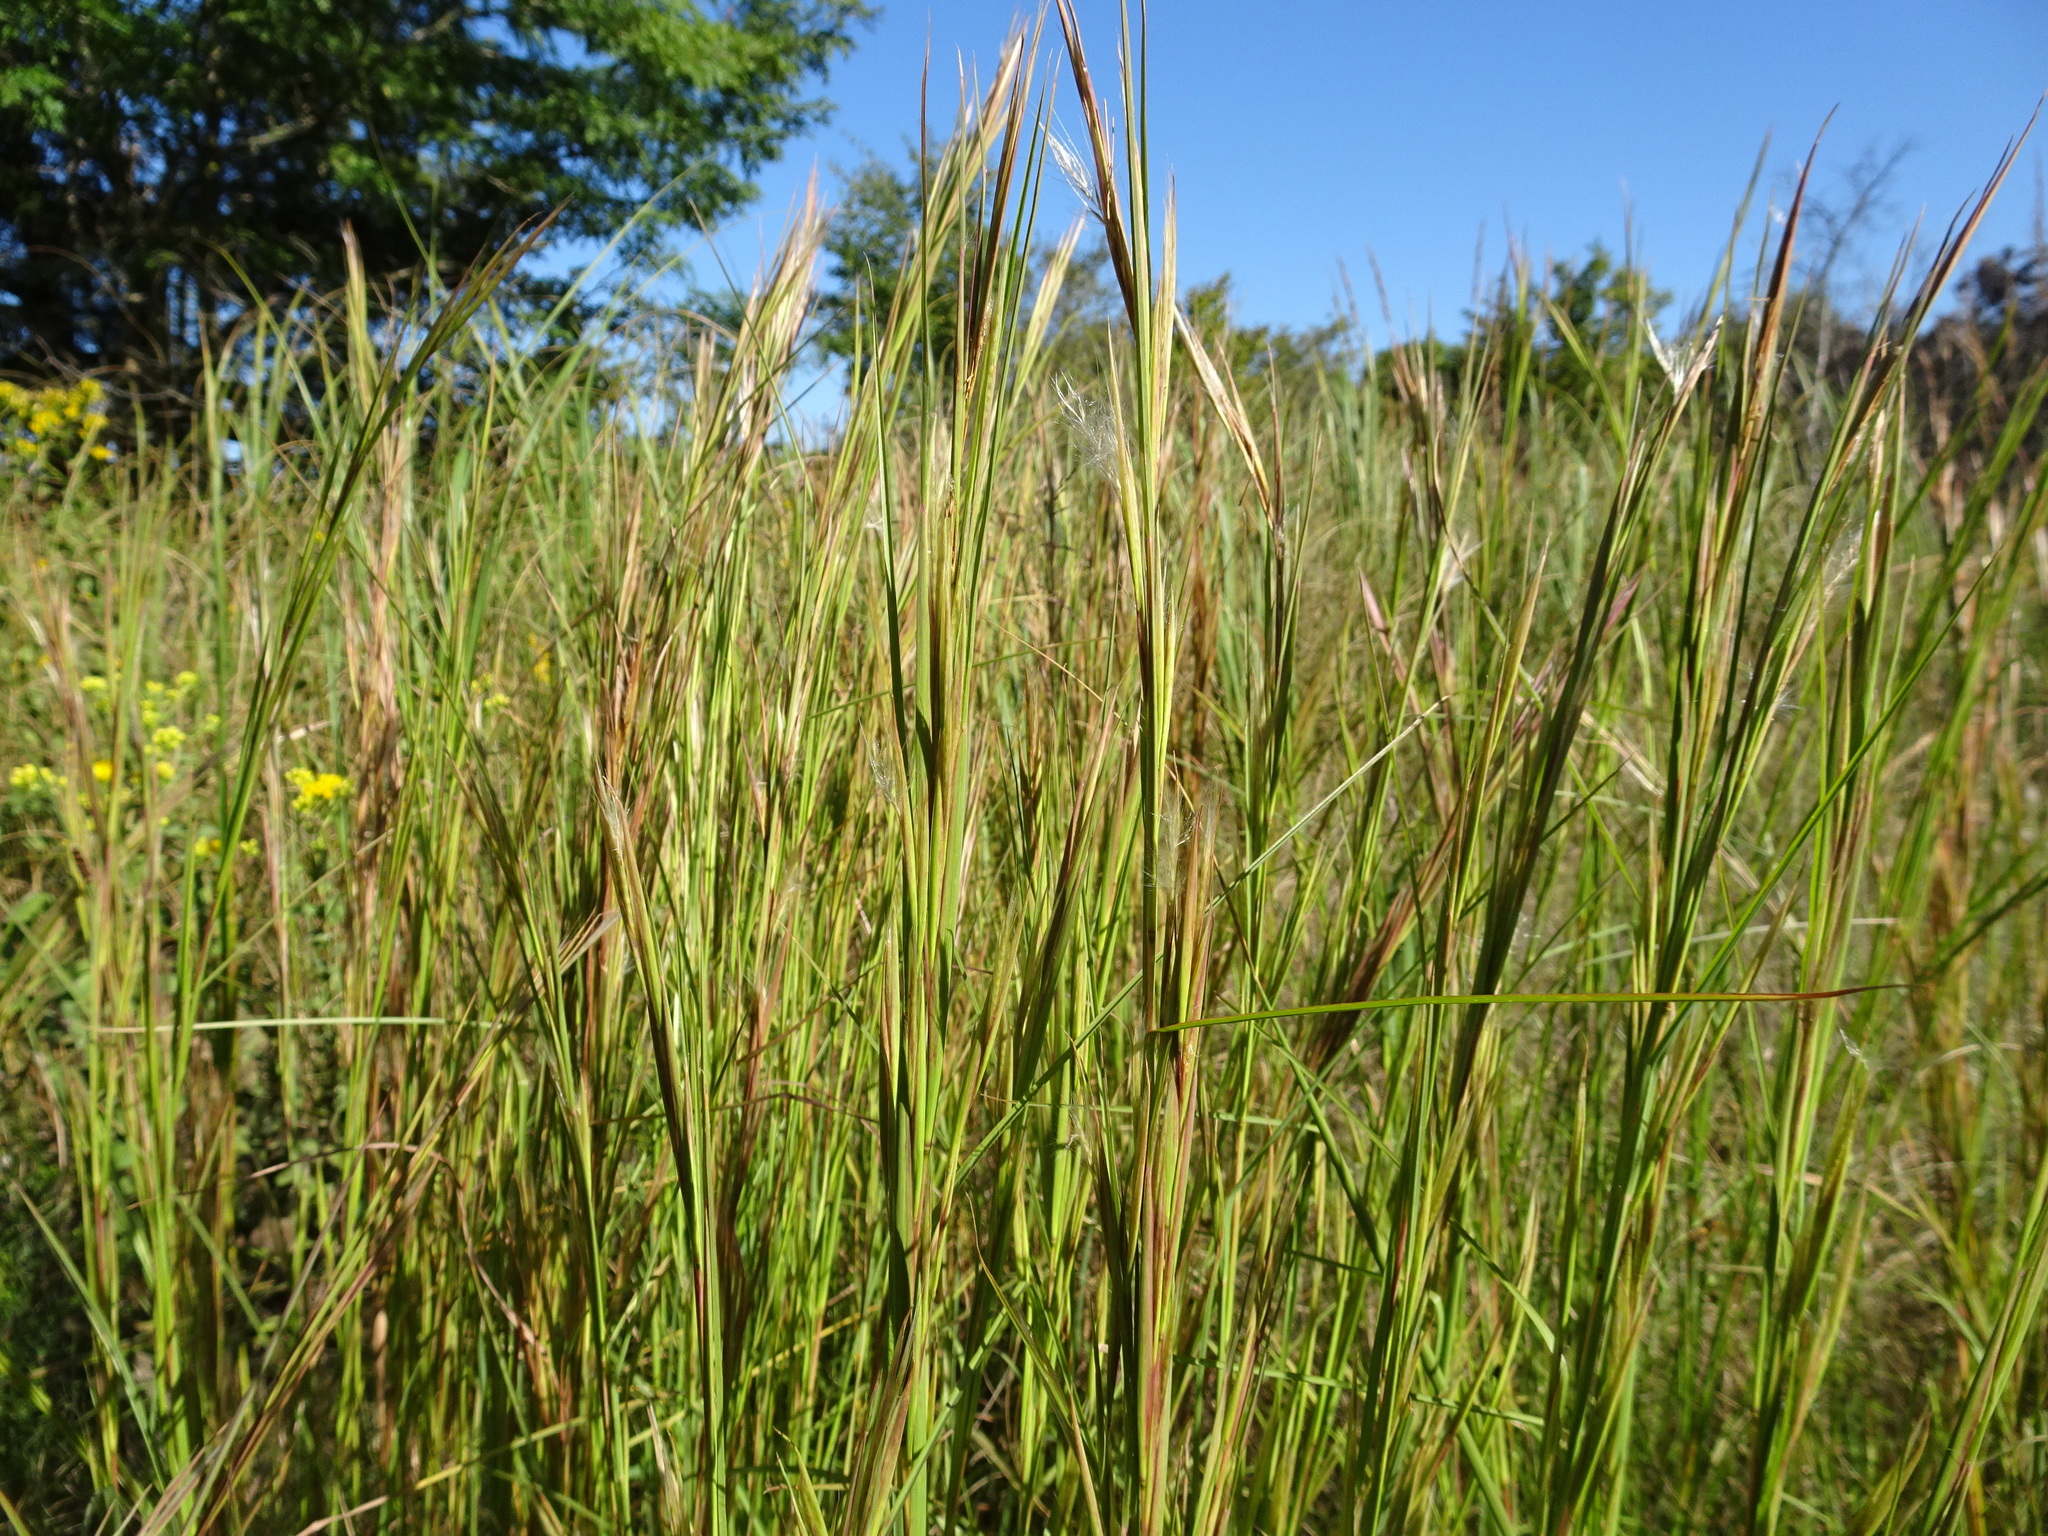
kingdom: Plantae
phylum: Tracheophyta
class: Liliopsida
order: Poales
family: Poaceae
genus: Andropogon
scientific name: Andropogon virginicus
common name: Broomsedge bluestem
